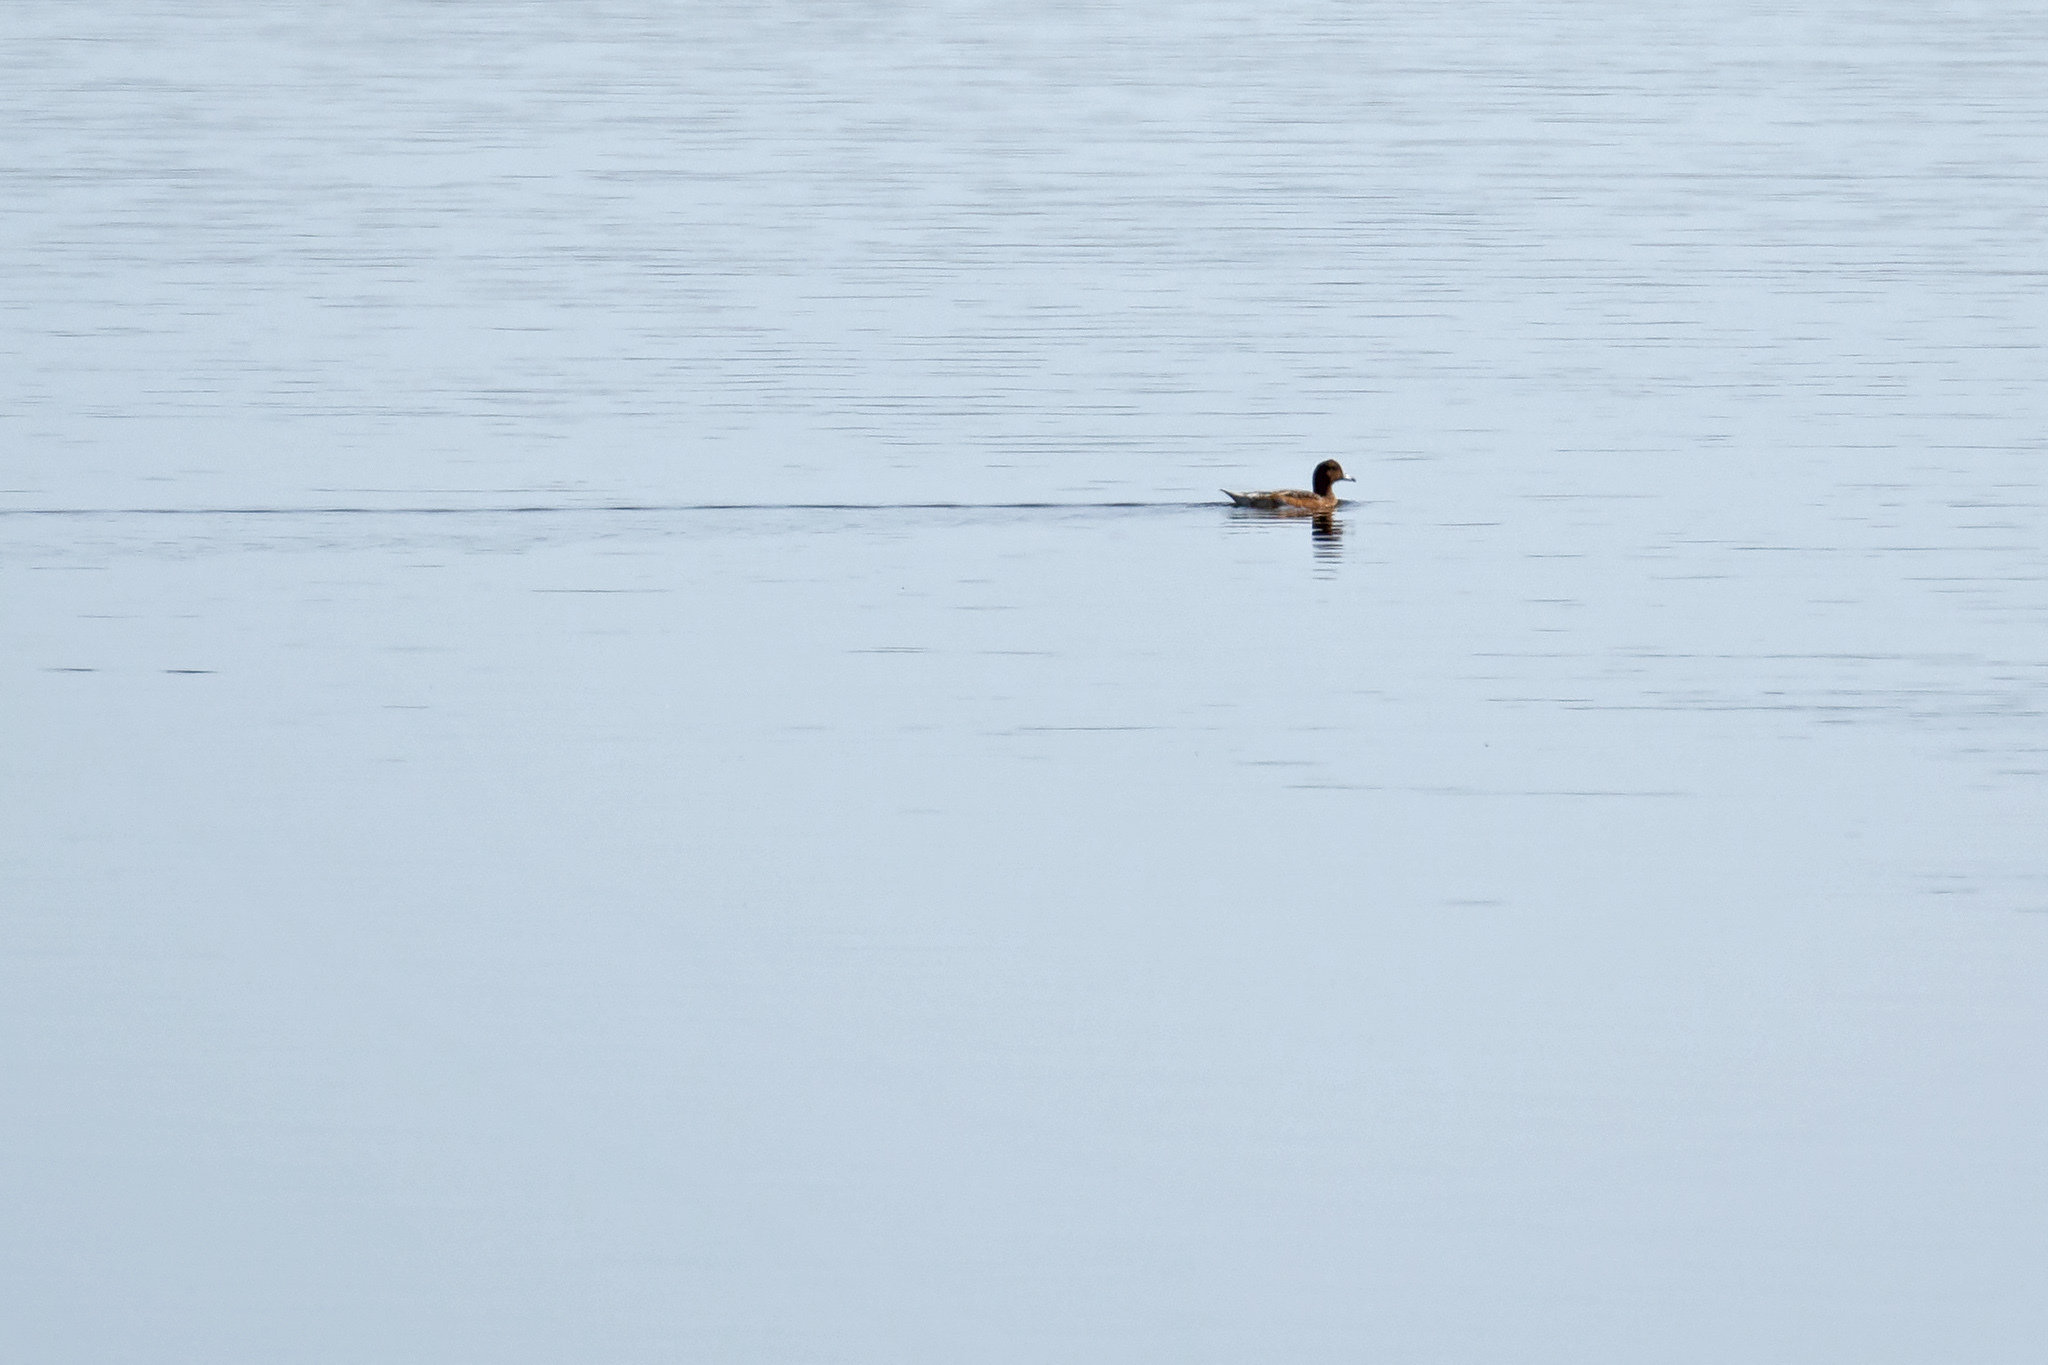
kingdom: Animalia
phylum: Chordata
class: Aves
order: Anseriformes
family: Anatidae
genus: Mareca
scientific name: Mareca penelope
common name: Eurasian wigeon
